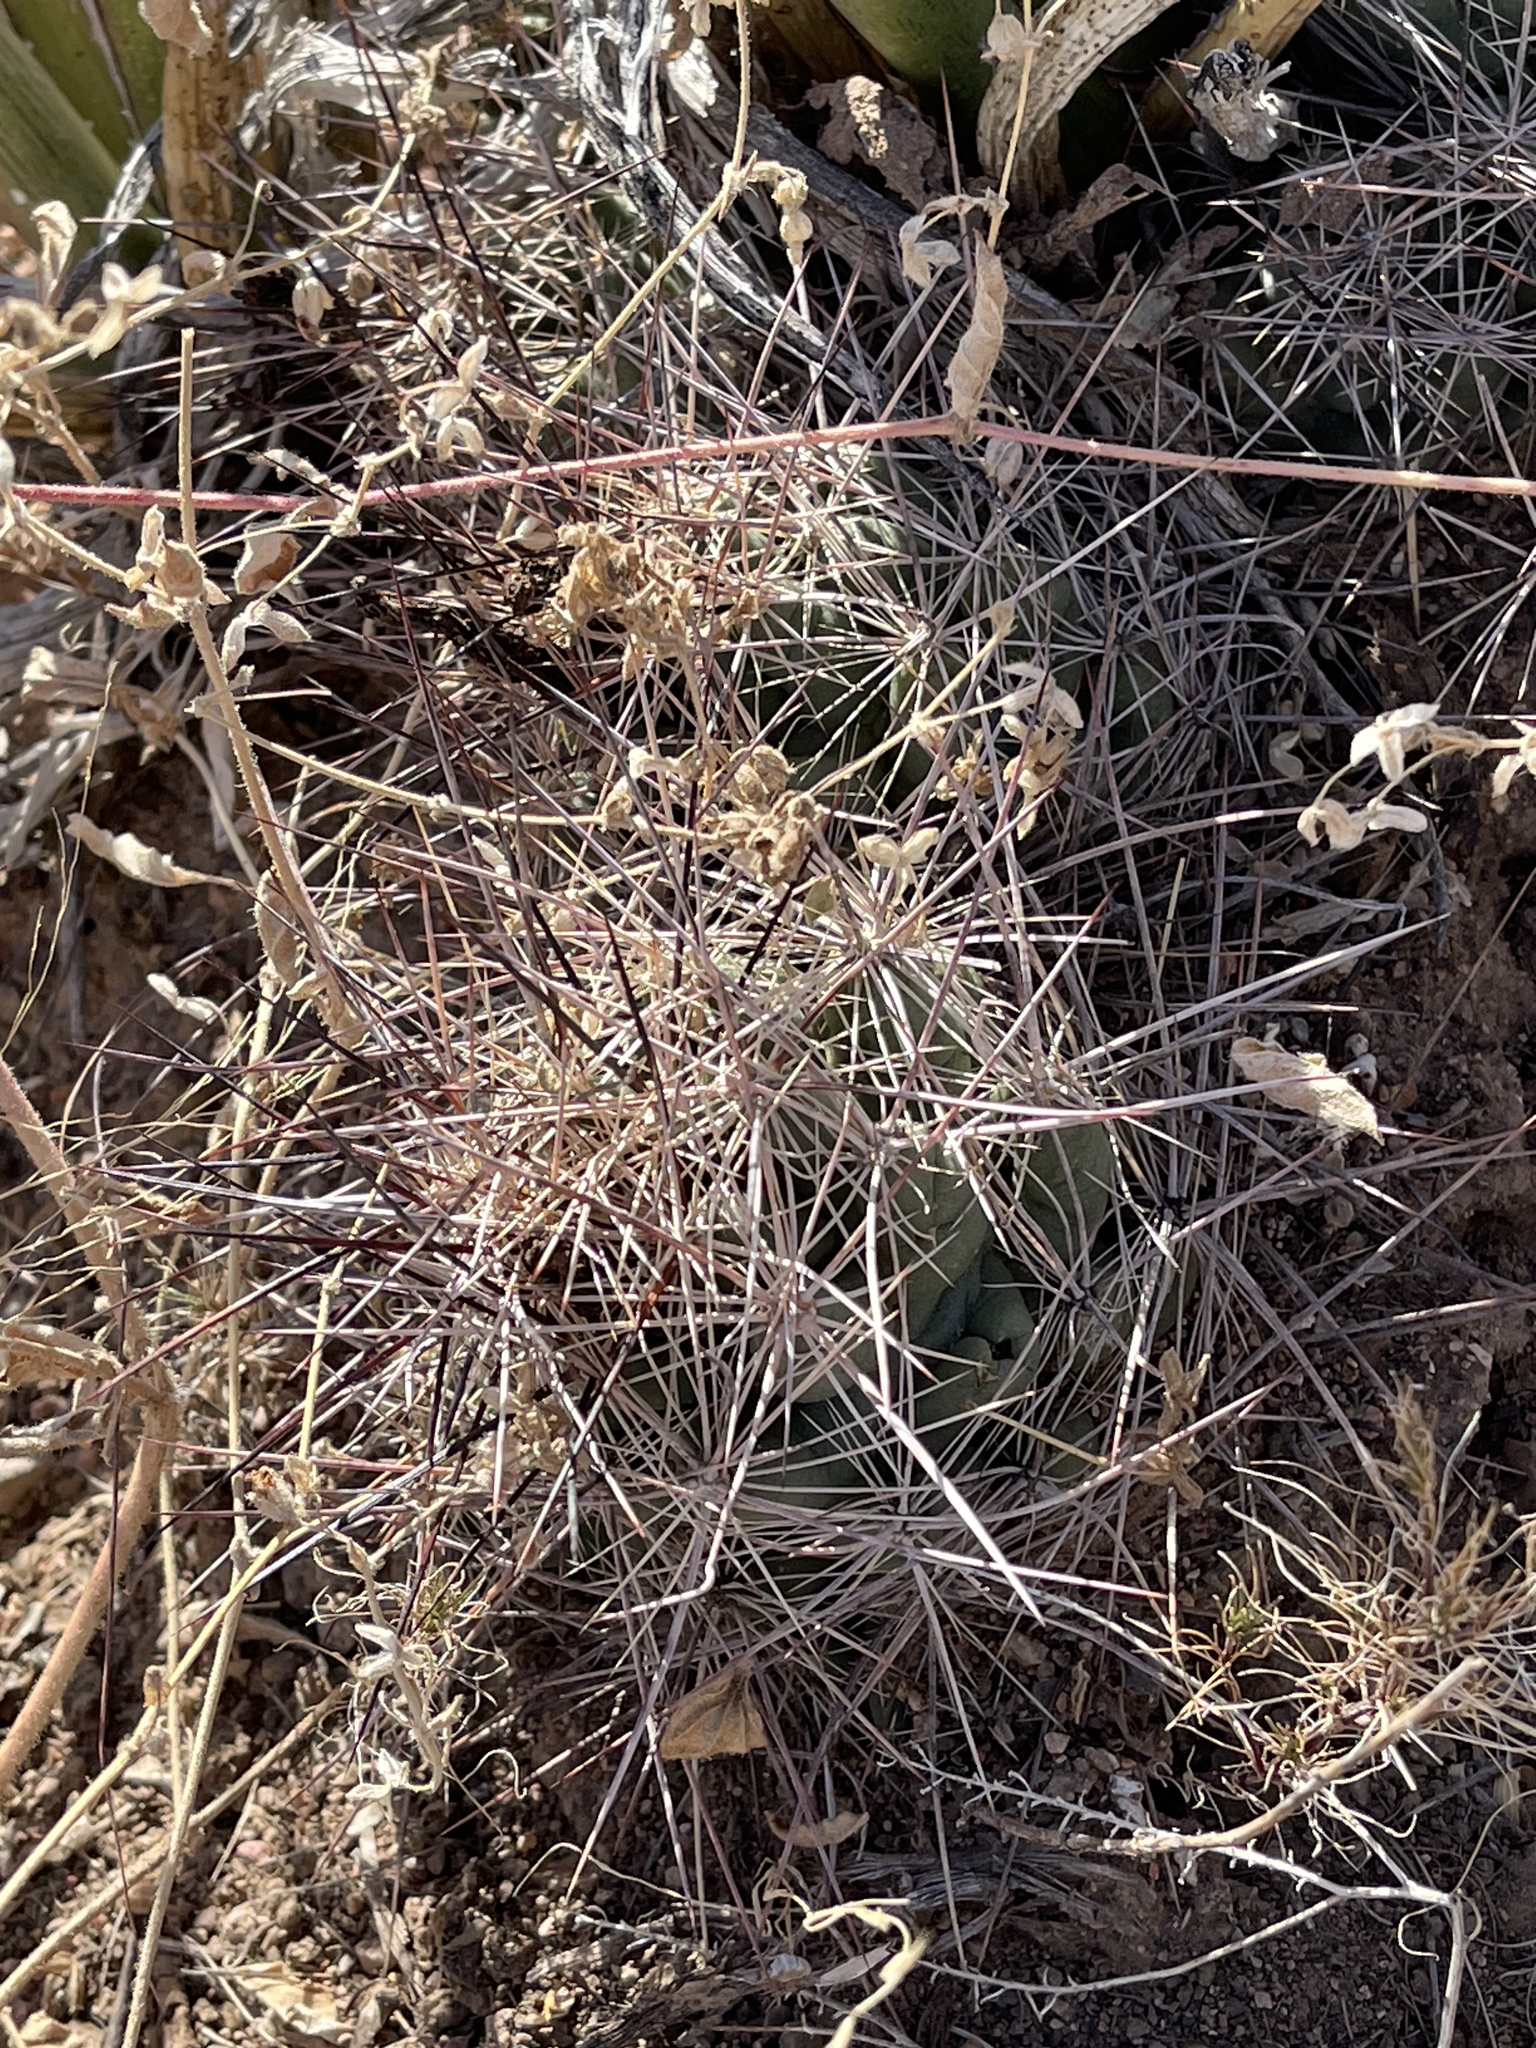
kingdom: Plantae
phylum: Tracheophyta
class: Magnoliopsida
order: Caryophyllales
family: Cactaceae
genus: Coryphantha
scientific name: Coryphantha macromeris
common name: Nipple beehive cactus
